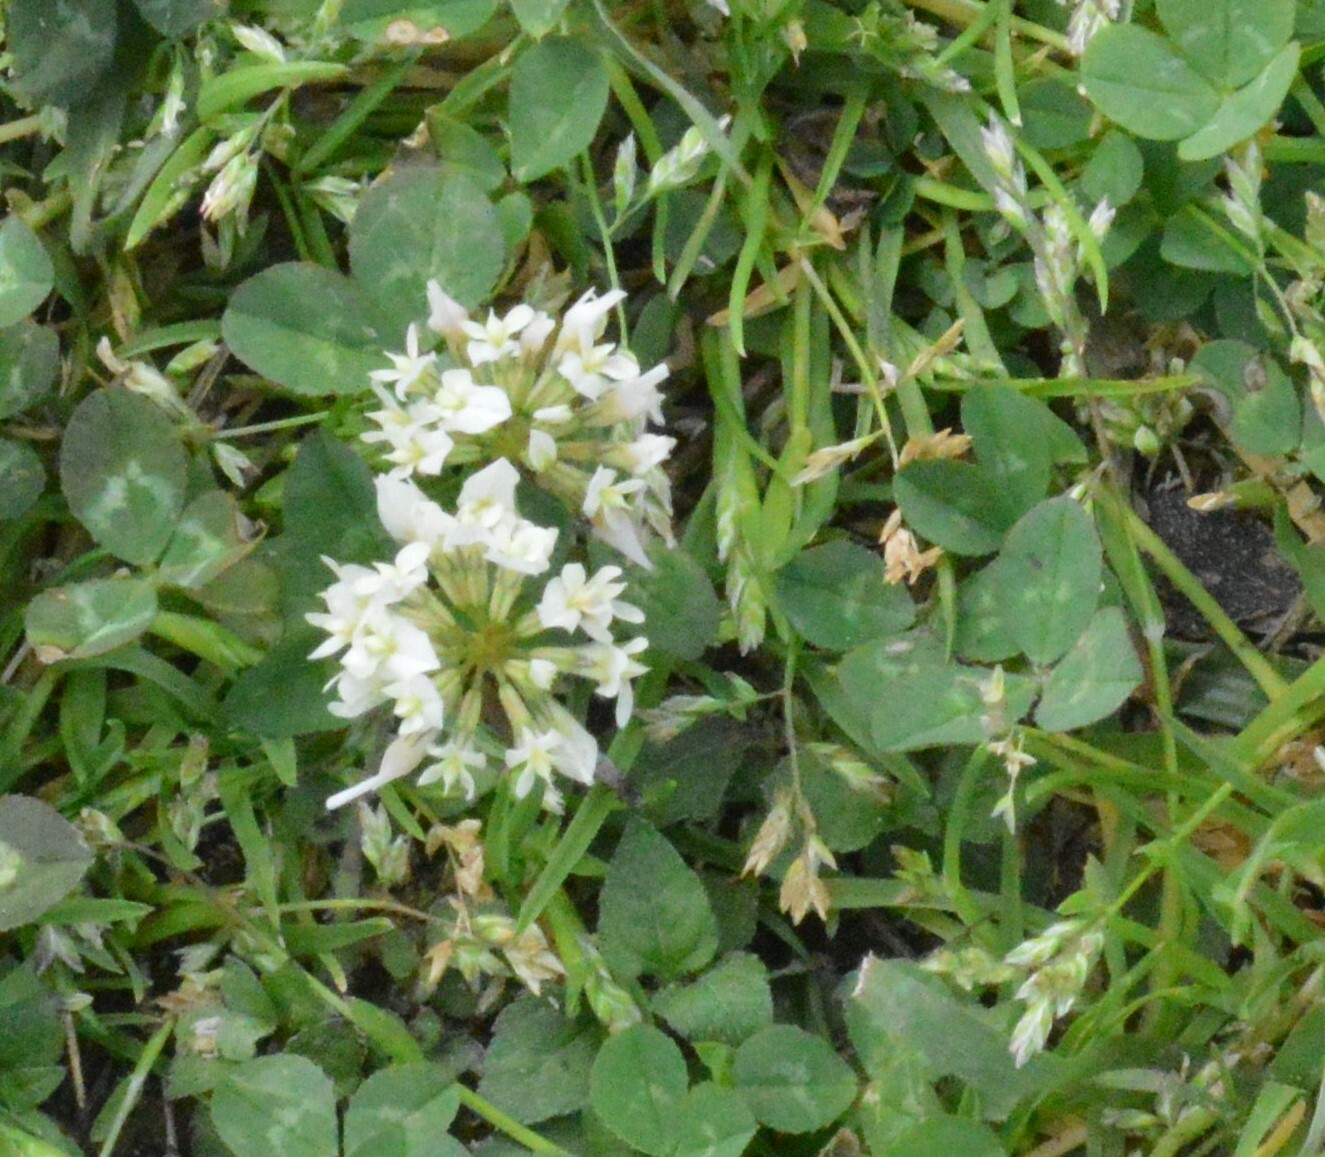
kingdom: Plantae
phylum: Tracheophyta
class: Magnoliopsida
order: Fabales
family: Fabaceae
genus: Trifolium
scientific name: Trifolium repens
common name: White clover
